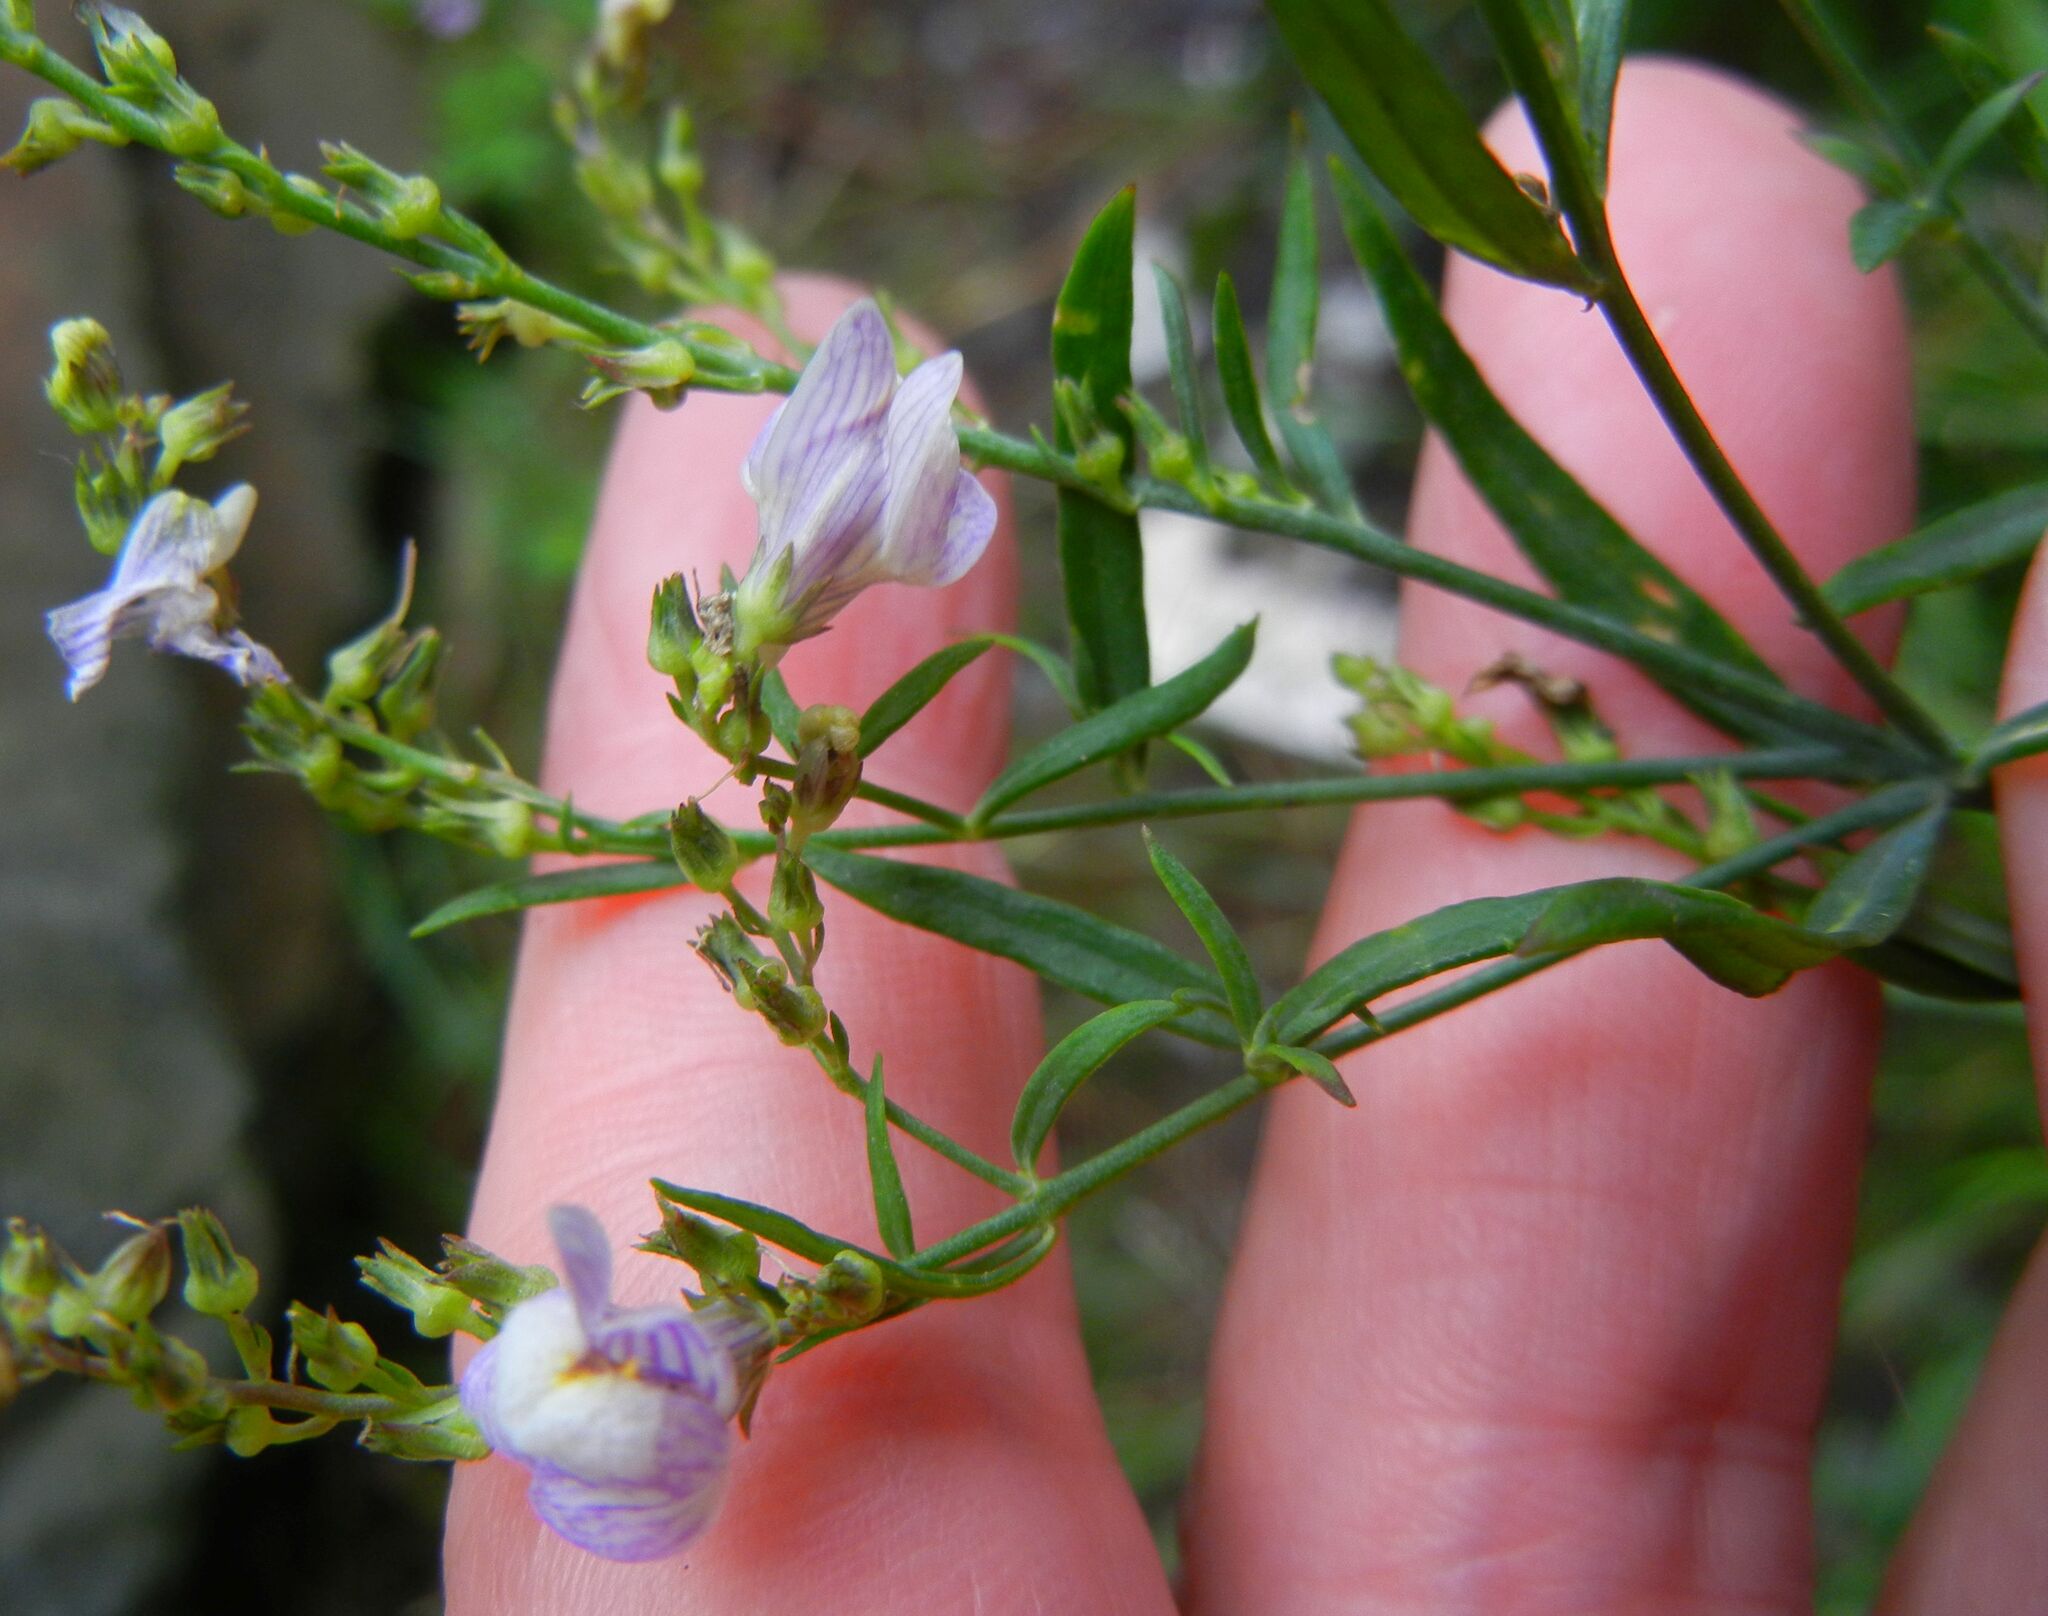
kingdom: Plantae
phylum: Tracheophyta
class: Magnoliopsida
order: Lamiales
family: Plantaginaceae
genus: Linaria
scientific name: Linaria repens
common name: Pale toadflax
